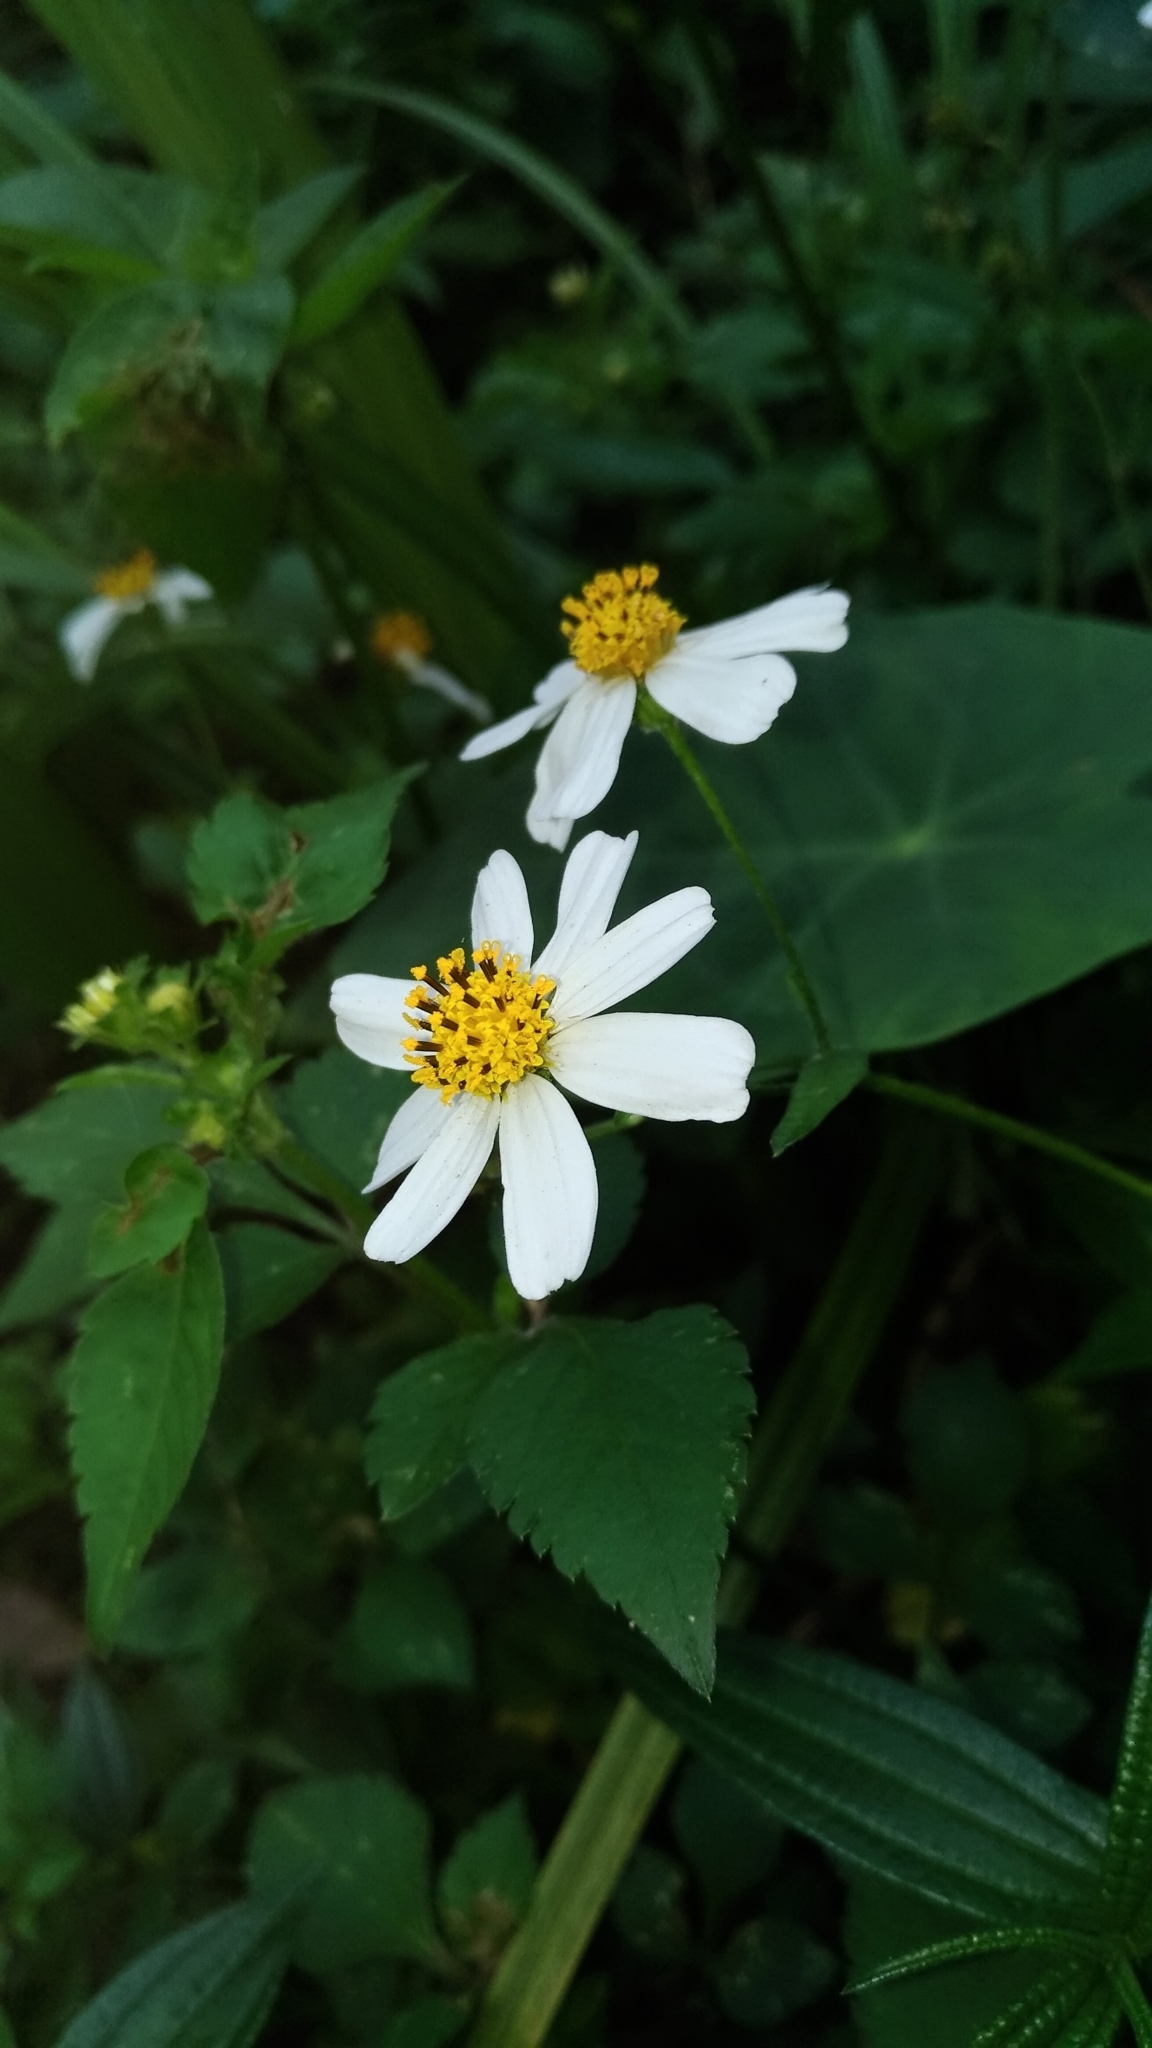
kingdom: Plantae
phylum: Tracheophyta
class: Magnoliopsida
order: Asterales
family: Asteraceae
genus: Bidens
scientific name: Bidens alba
